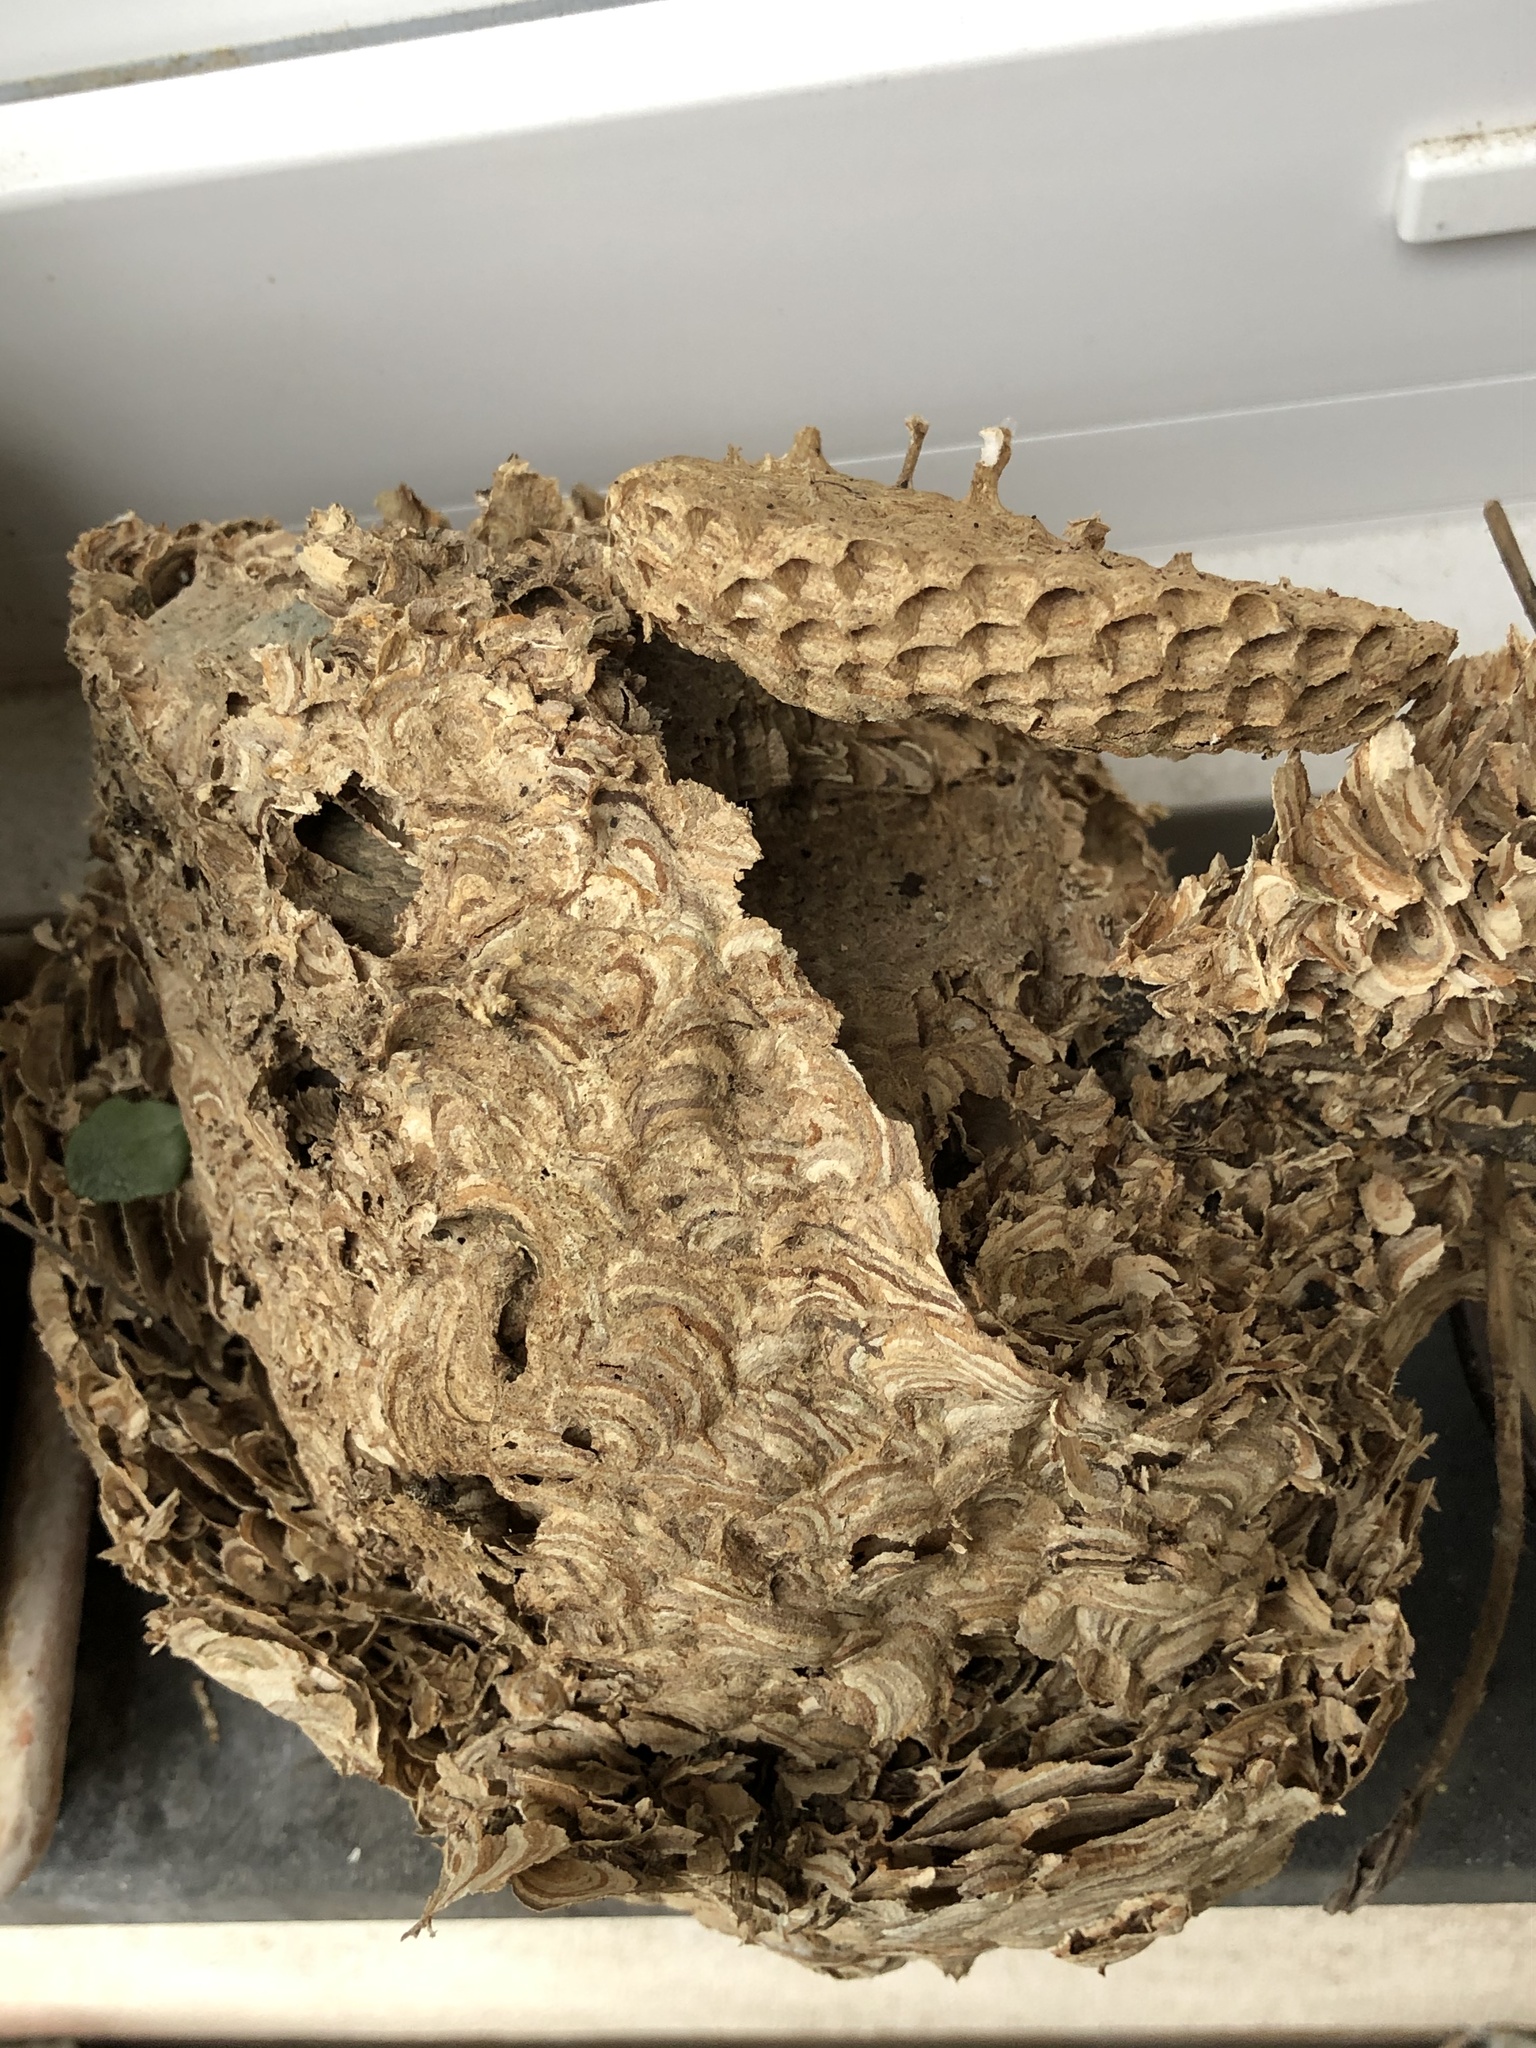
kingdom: Animalia
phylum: Arthropoda
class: Insecta
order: Hymenoptera
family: Vespidae
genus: Vespula
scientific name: Vespula vulgaris
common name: Common wasp
